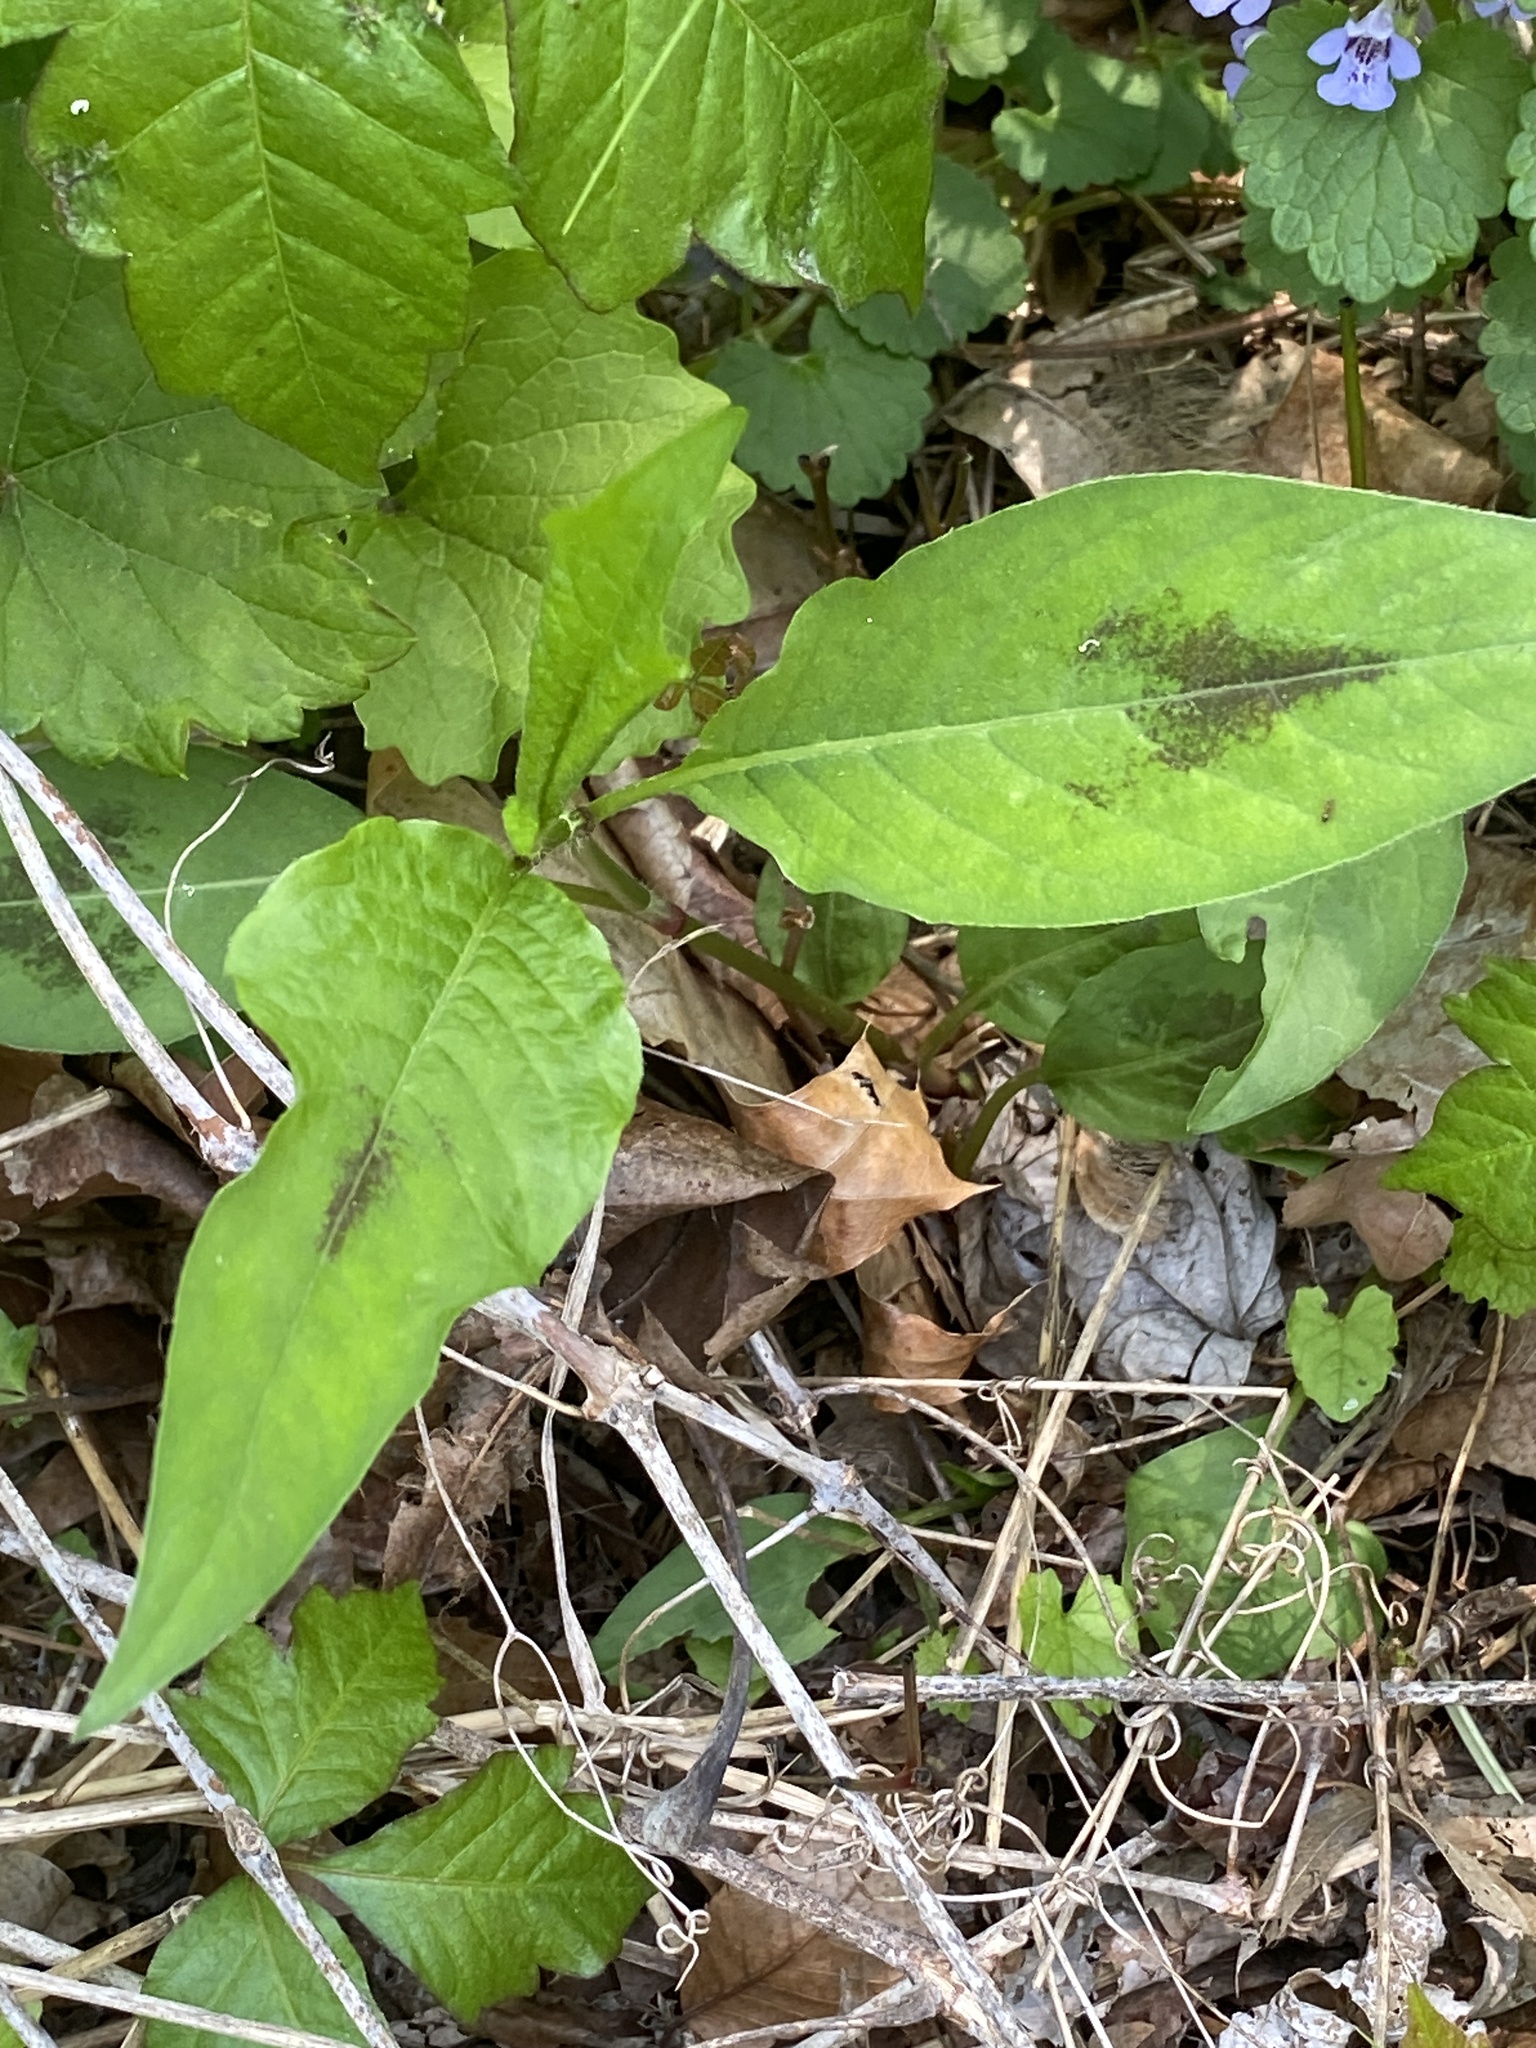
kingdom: Plantae
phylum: Tracheophyta
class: Magnoliopsida
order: Caryophyllales
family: Polygonaceae
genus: Persicaria
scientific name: Persicaria virginiana
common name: Jumpseed
